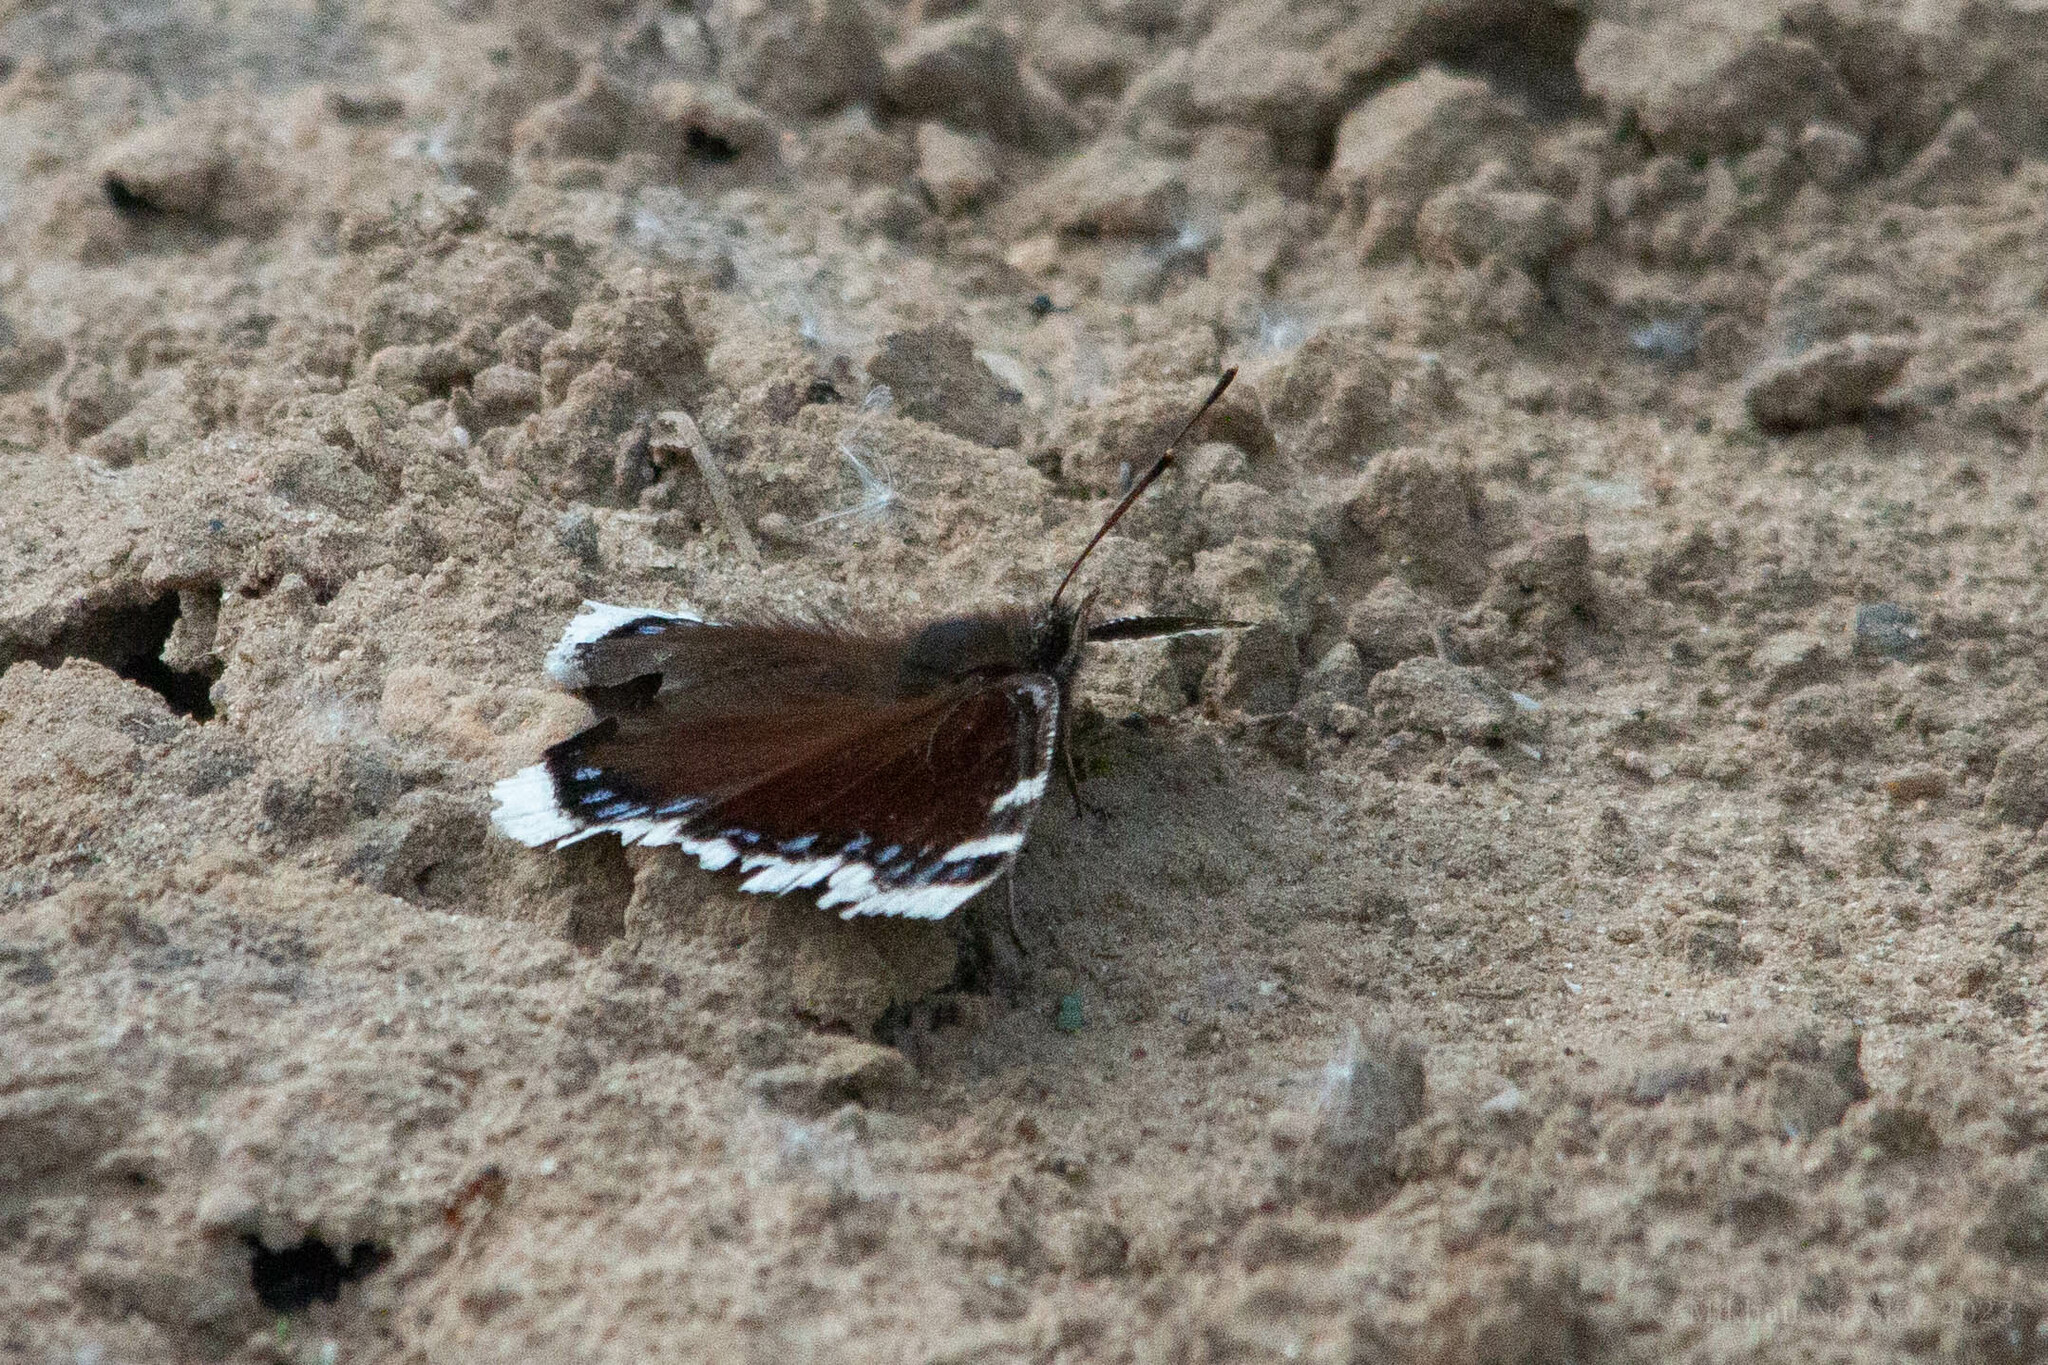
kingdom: Animalia
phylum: Arthropoda
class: Insecta
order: Lepidoptera
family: Nymphalidae
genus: Nymphalis
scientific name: Nymphalis antiopa
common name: Camberwell beauty
